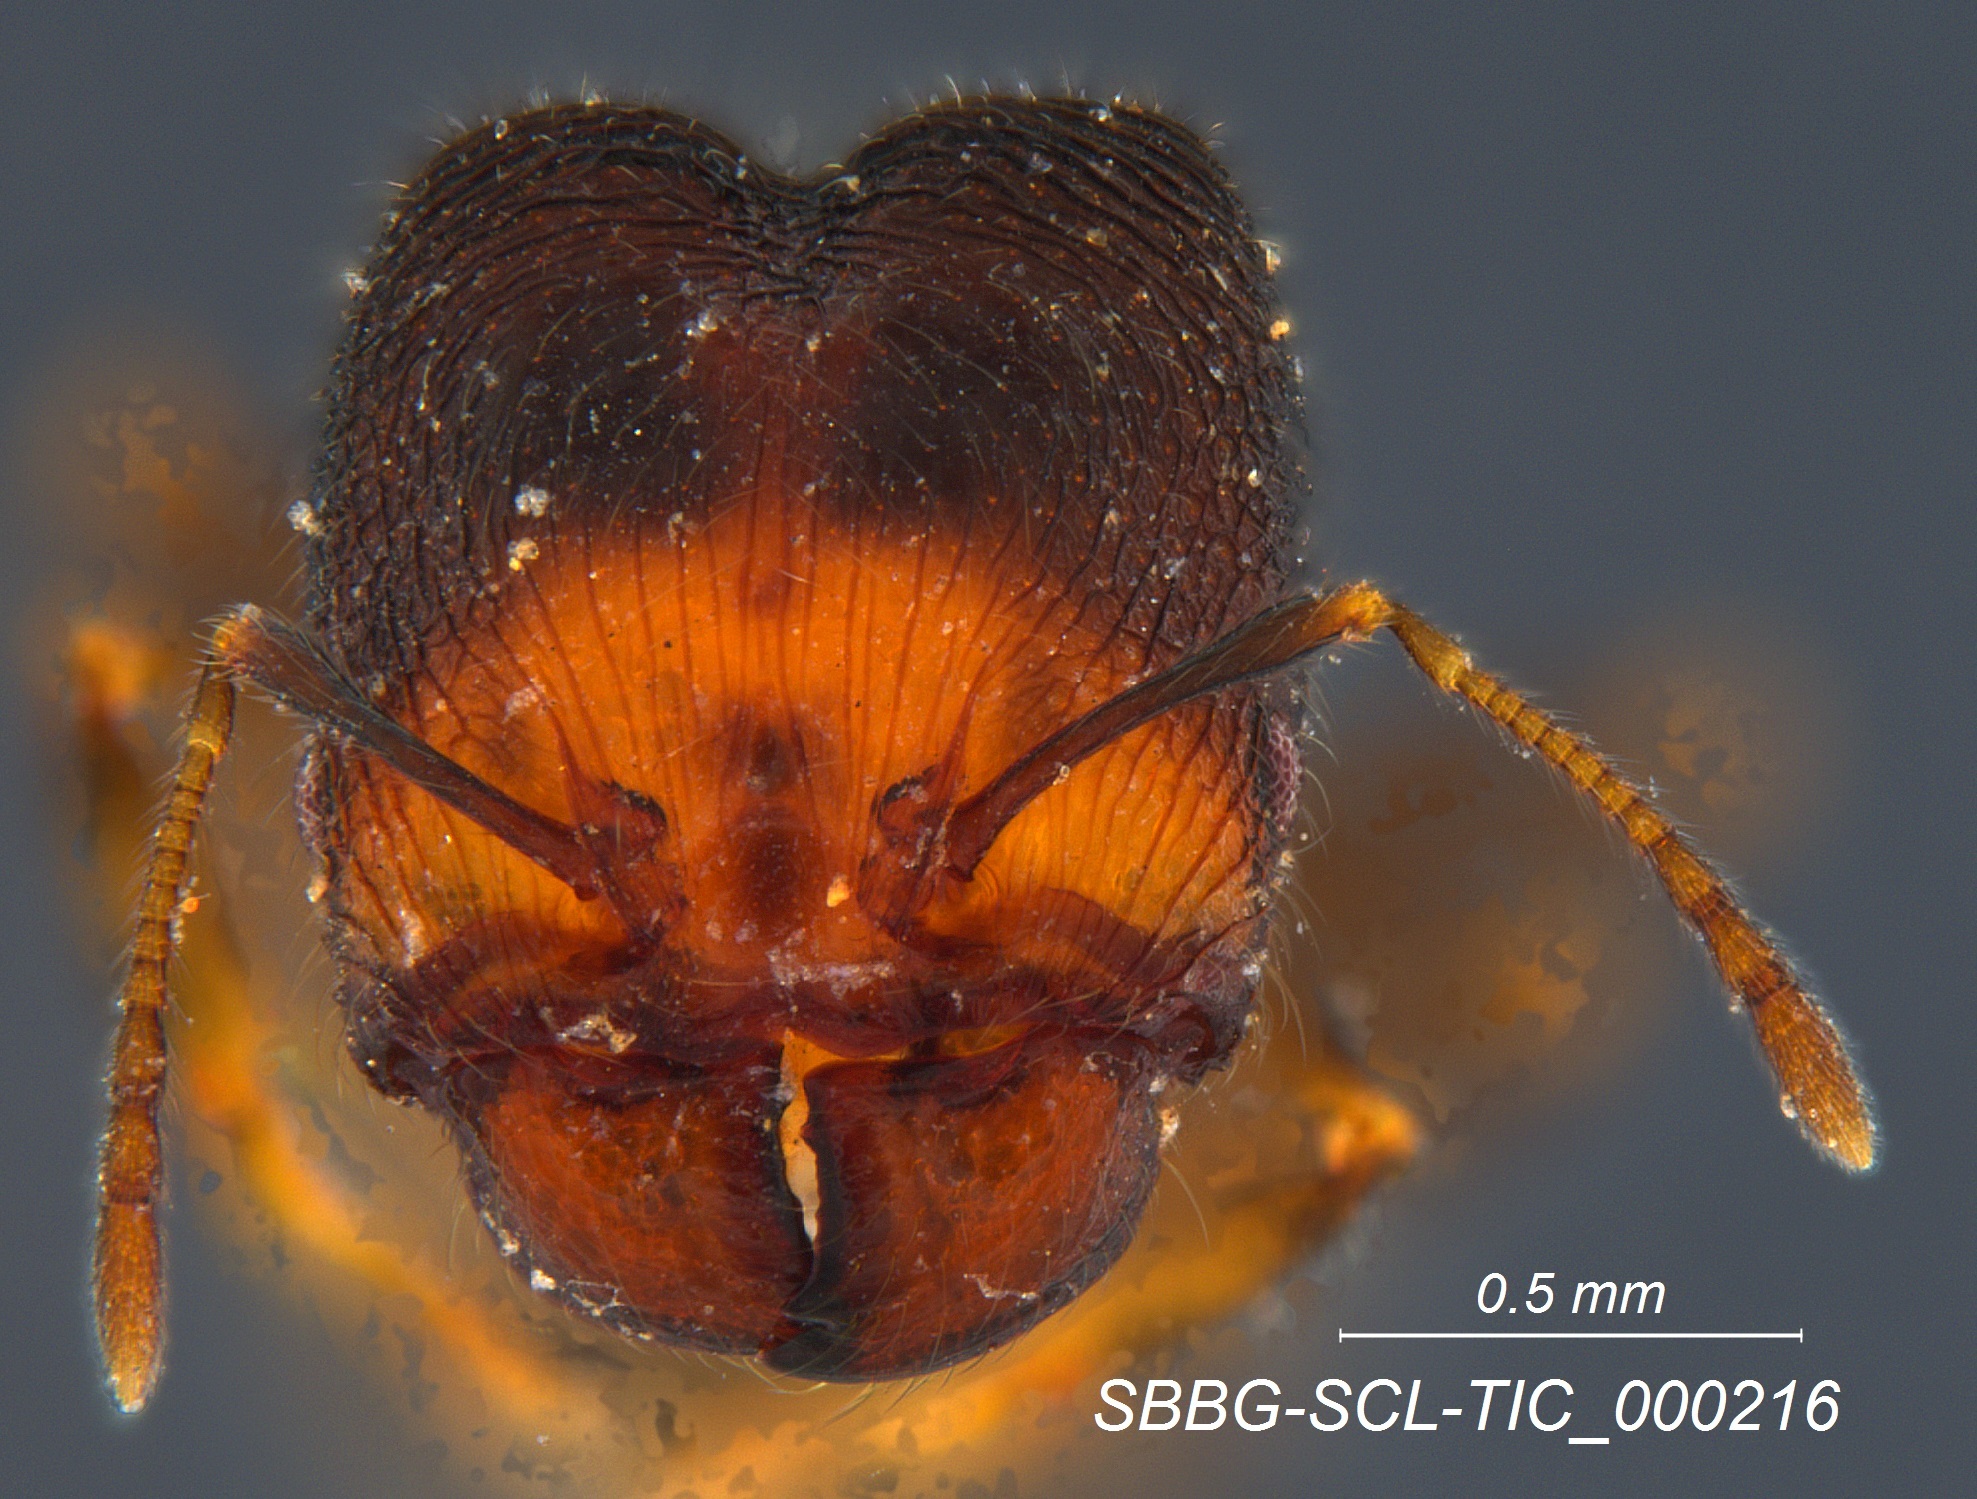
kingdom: Animalia
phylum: Arthropoda
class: Insecta
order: Hymenoptera
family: Formicidae
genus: Pheidole
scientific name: Pheidole clementensis
